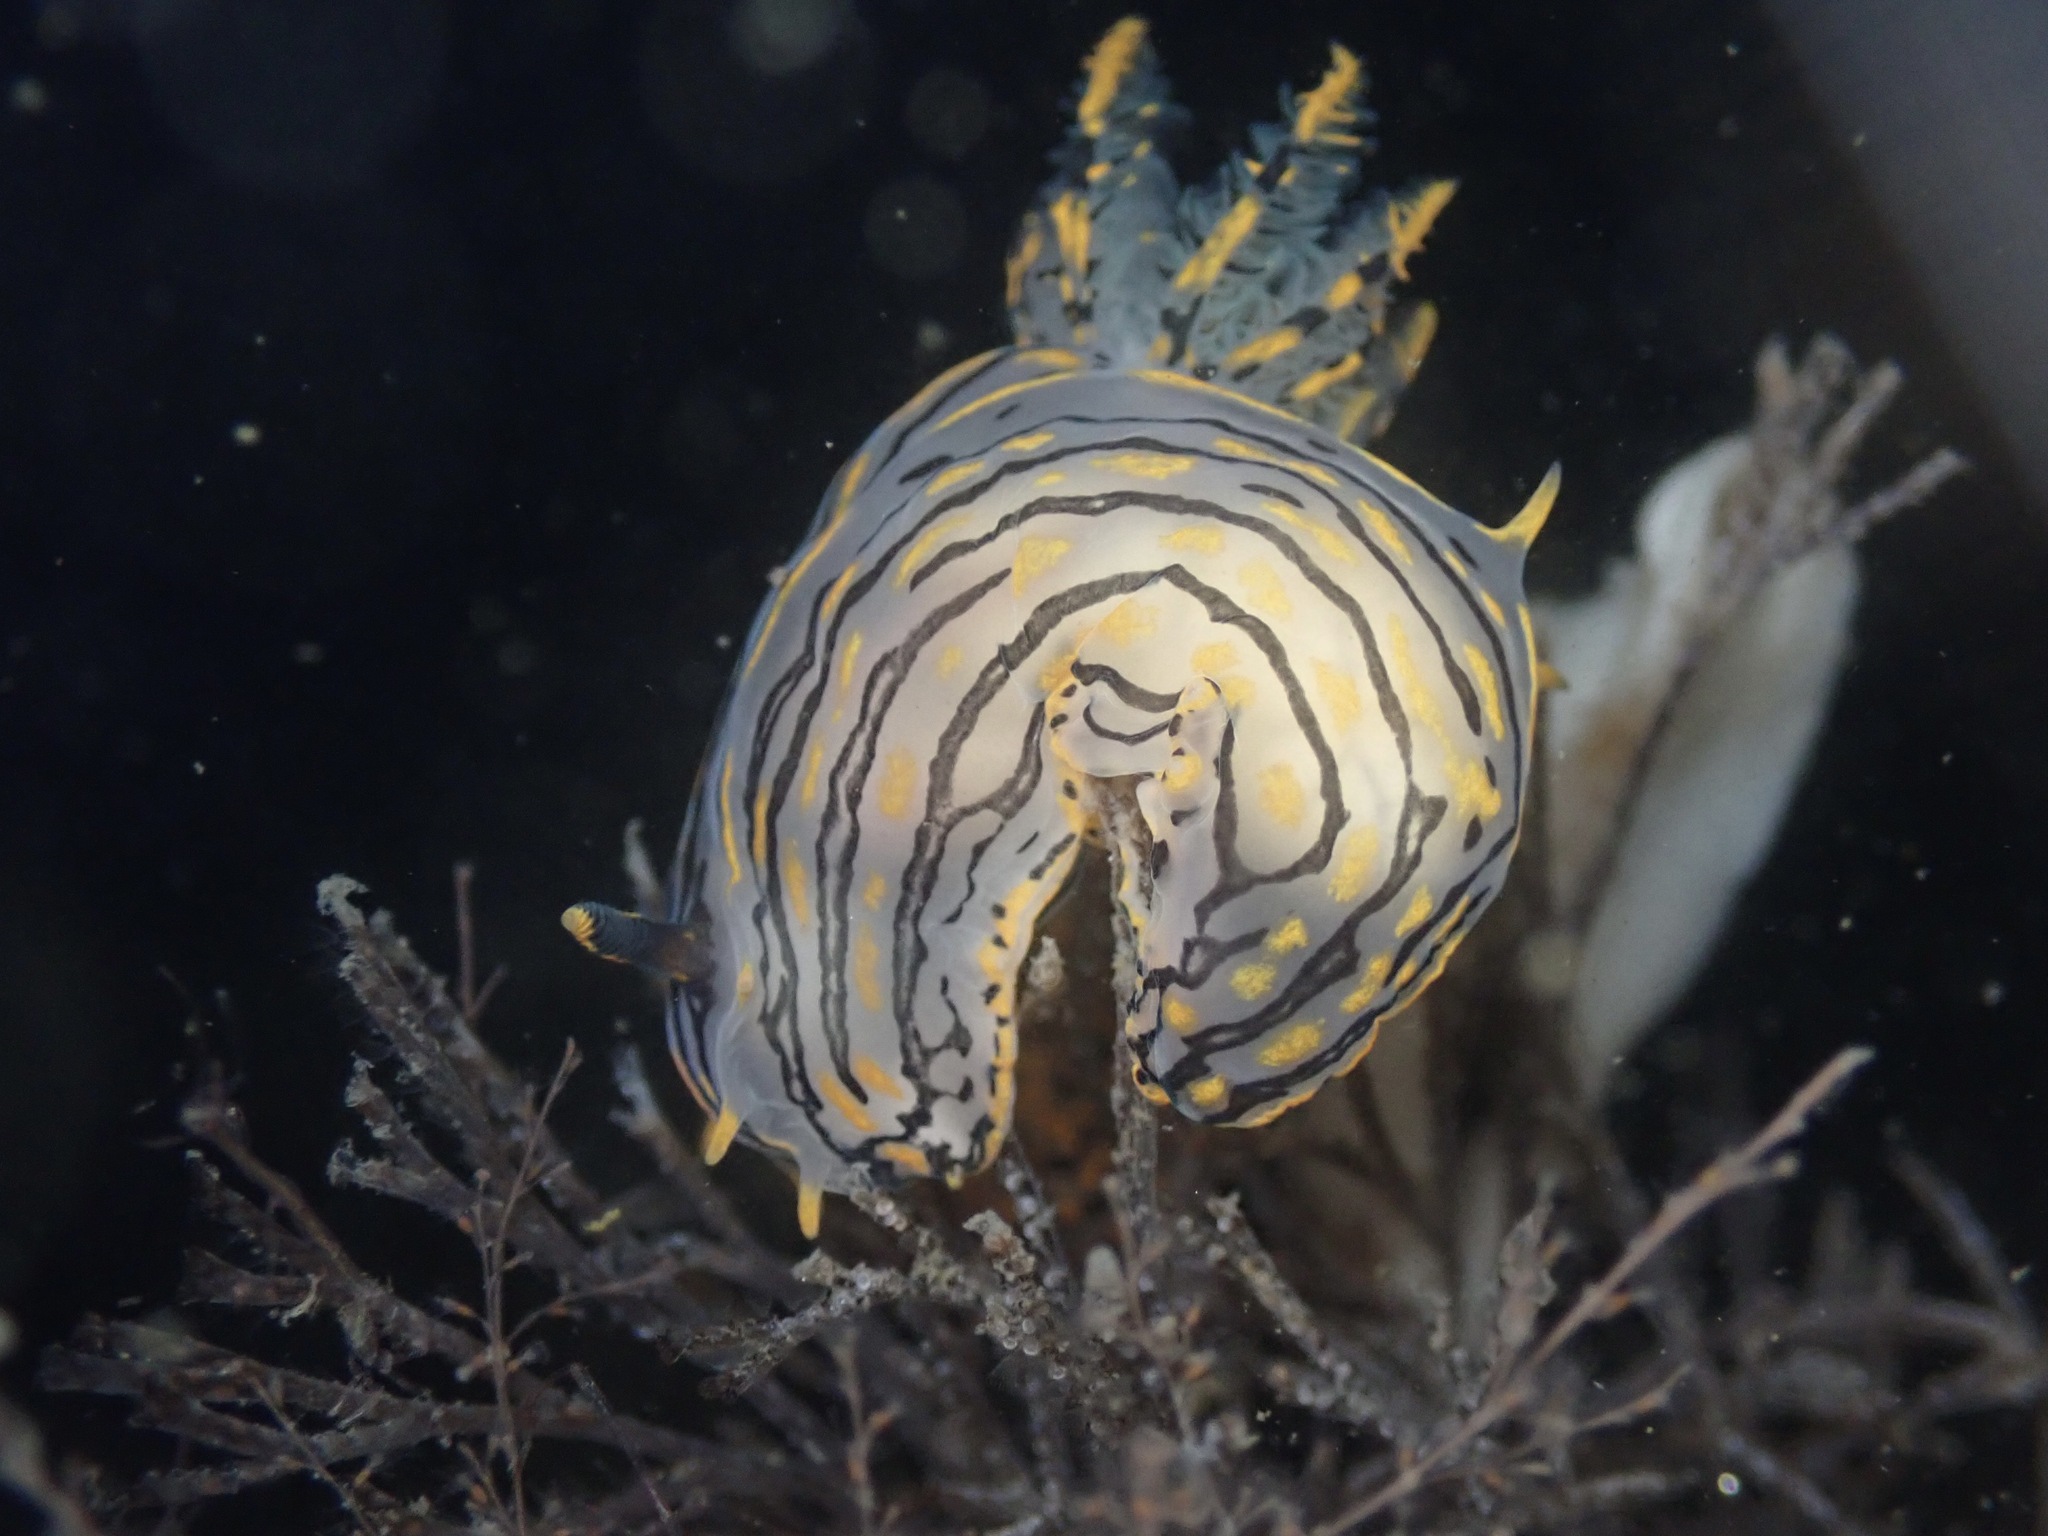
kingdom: Animalia
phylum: Mollusca
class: Gastropoda
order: Nudibranchia
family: Polyceridae
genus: Polycera
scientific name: Polycera atra
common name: Orange-spike polycera
